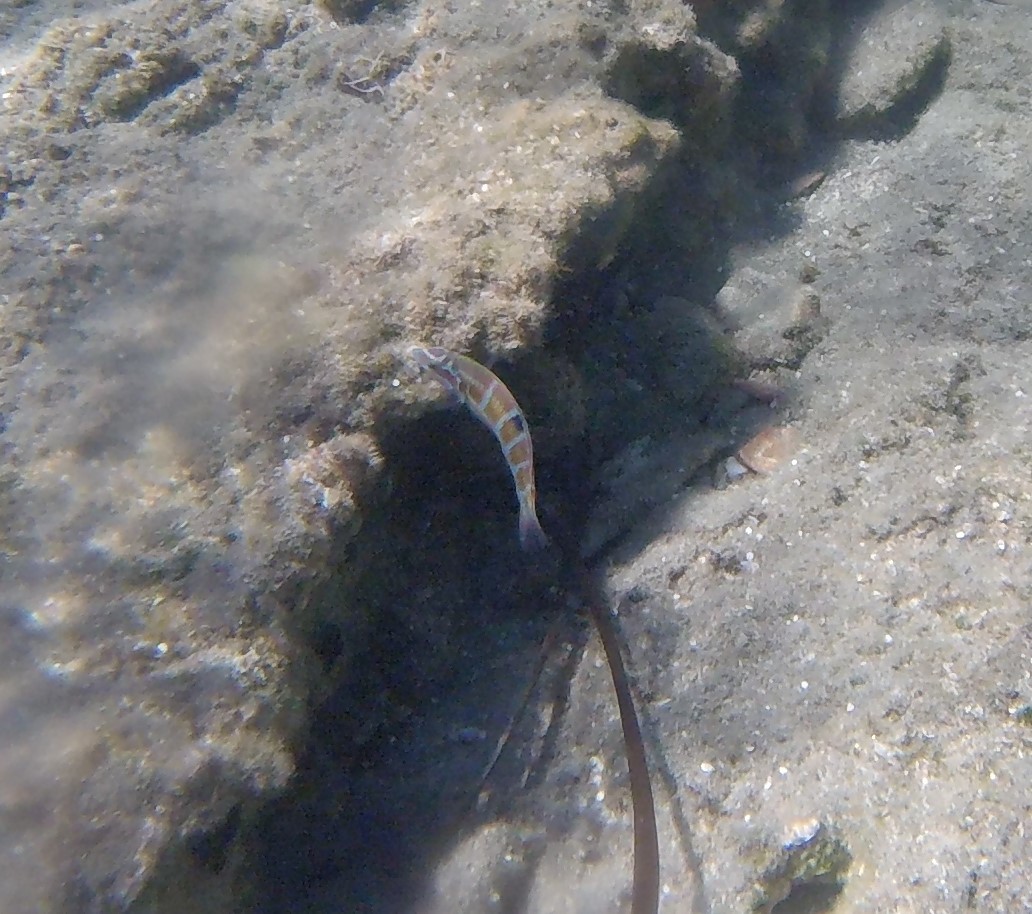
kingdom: Animalia
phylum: Chordata
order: Perciformes
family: Labridae
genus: Thalassoma
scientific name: Thalassoma pavo
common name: Ornate wrasse
